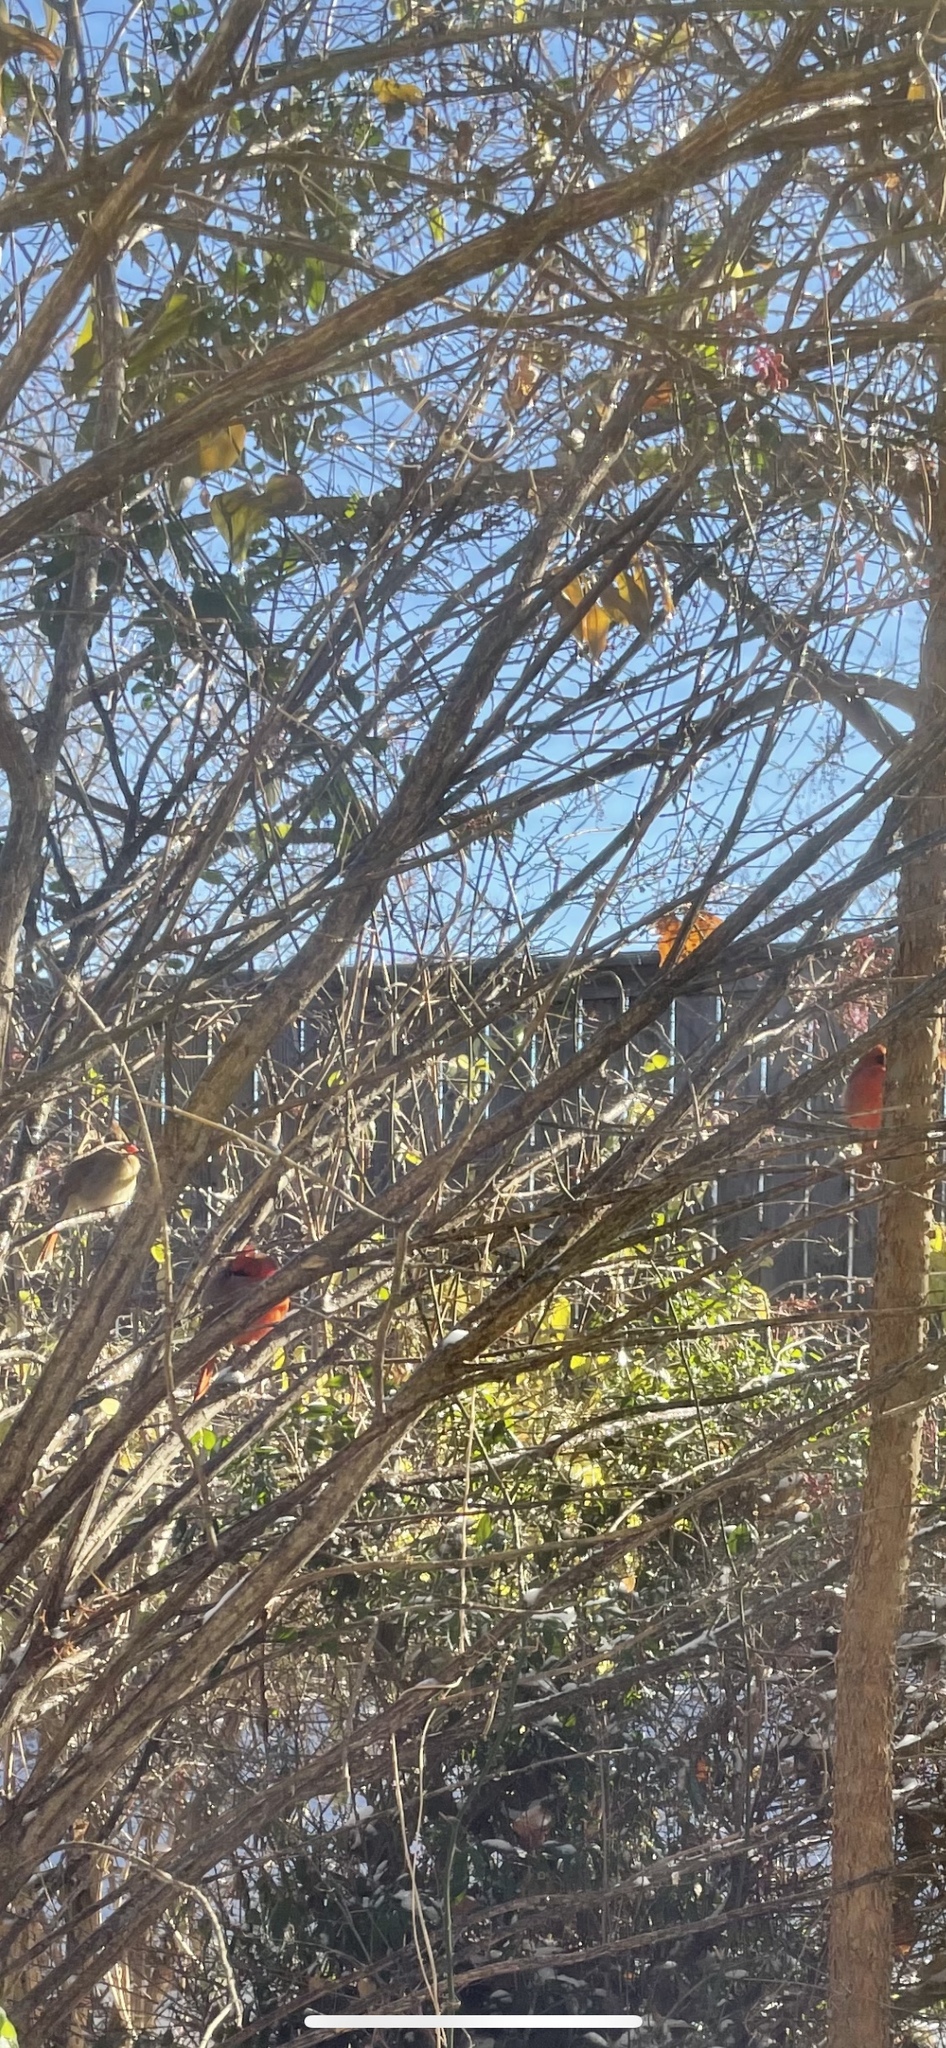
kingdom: Animalia
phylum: Chordata
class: Aves
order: Passeriformes
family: Cardinalidae
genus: Cardinalis
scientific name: Cardinalis cardinalis
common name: Northern cardinal
